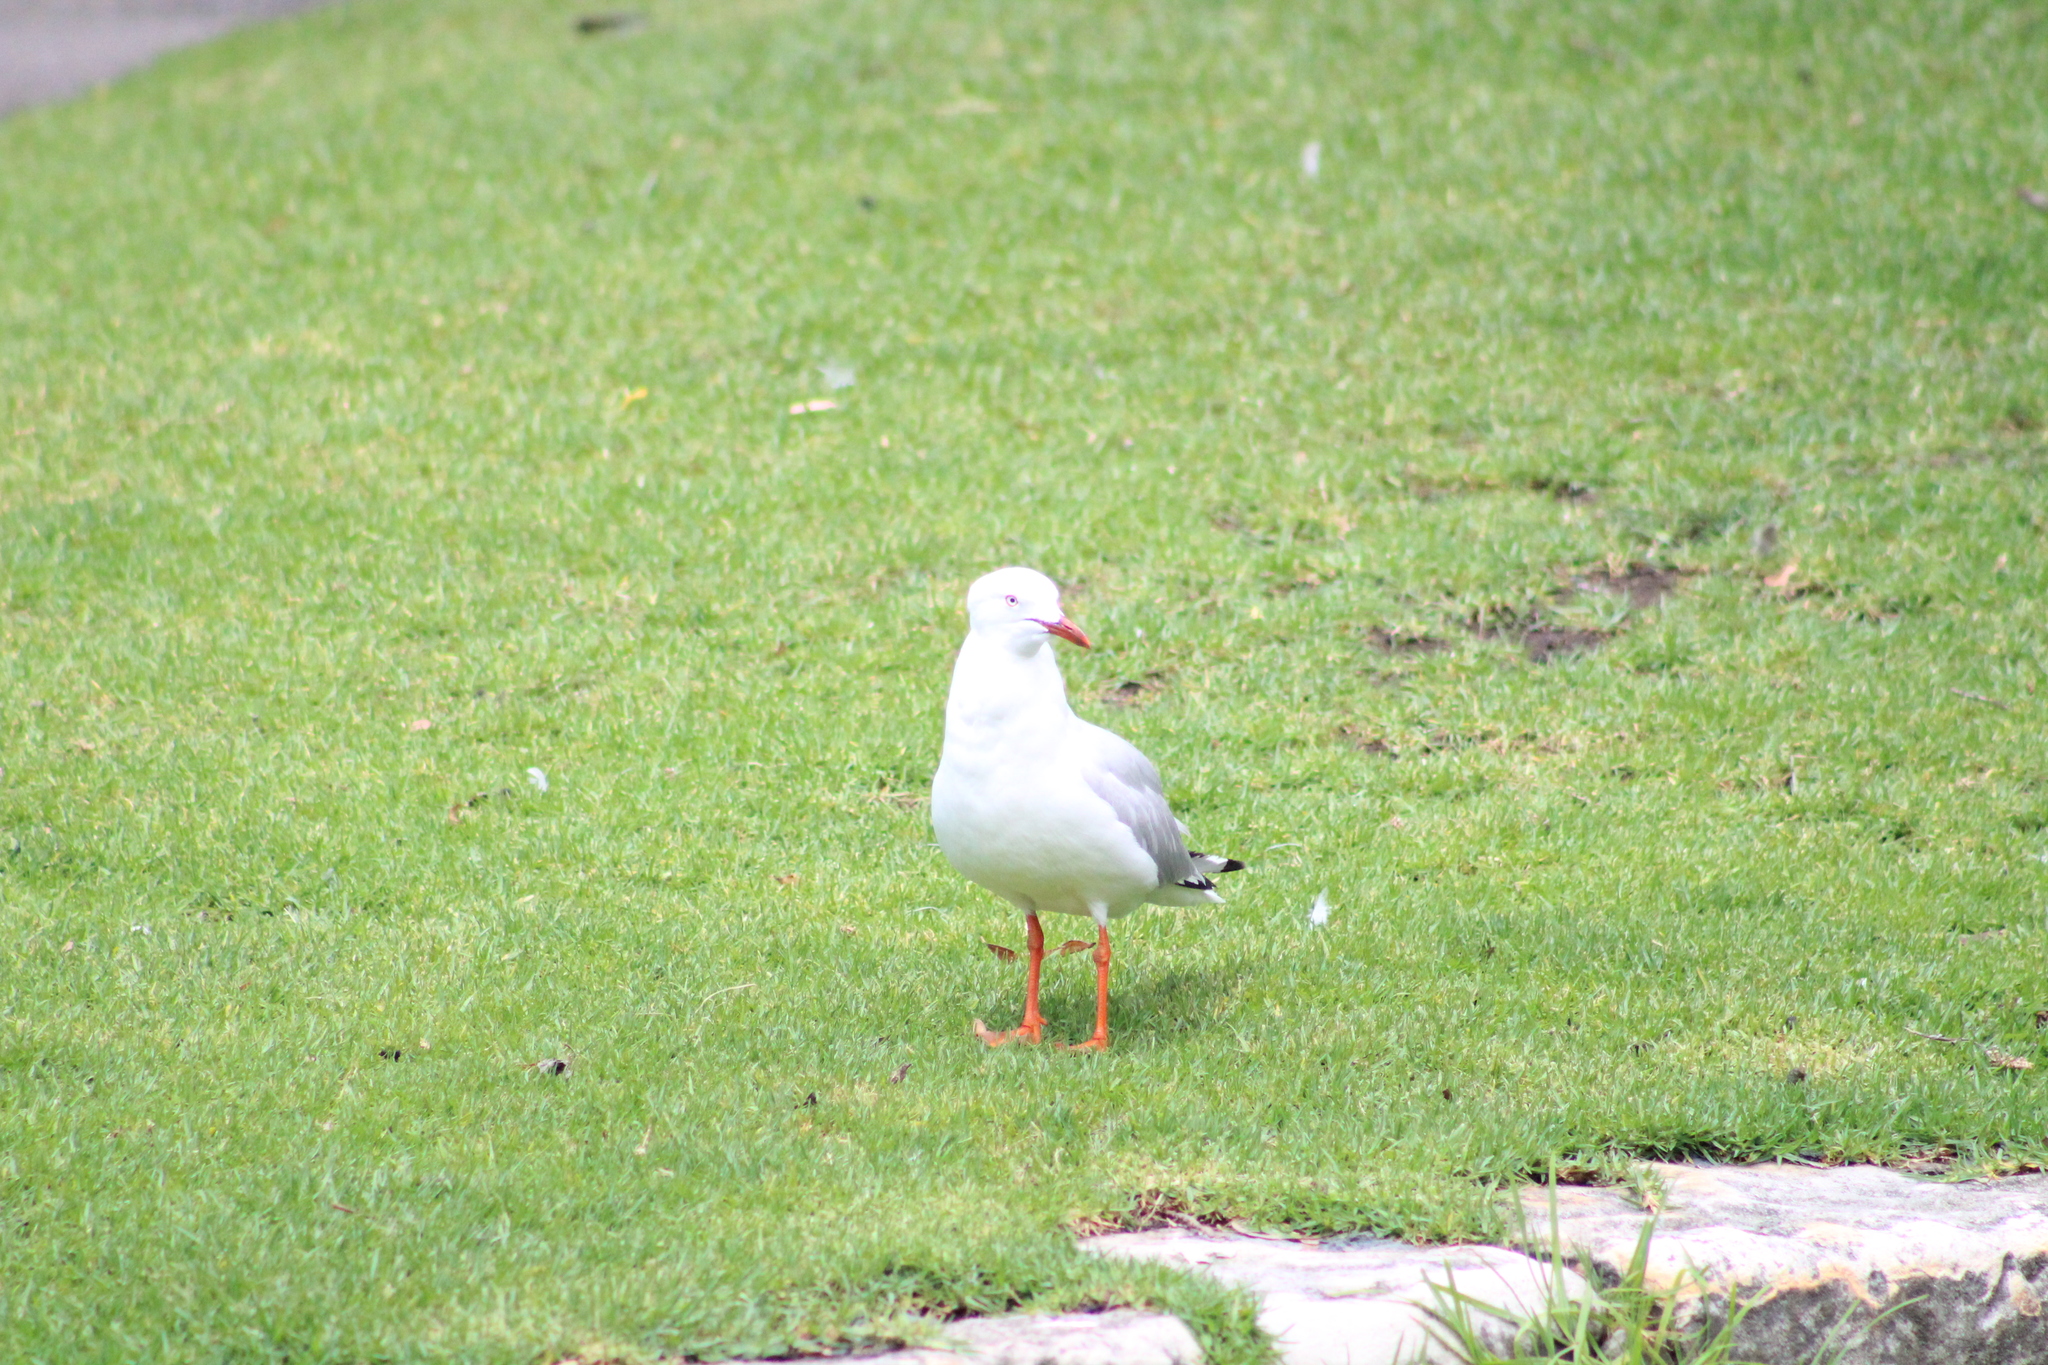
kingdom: Animalia
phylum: Chordata
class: Aves
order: Charadriiformes
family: Laridae
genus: Chroicocephalus
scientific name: Chroicocephalus novaehollandiae
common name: Silver gull
